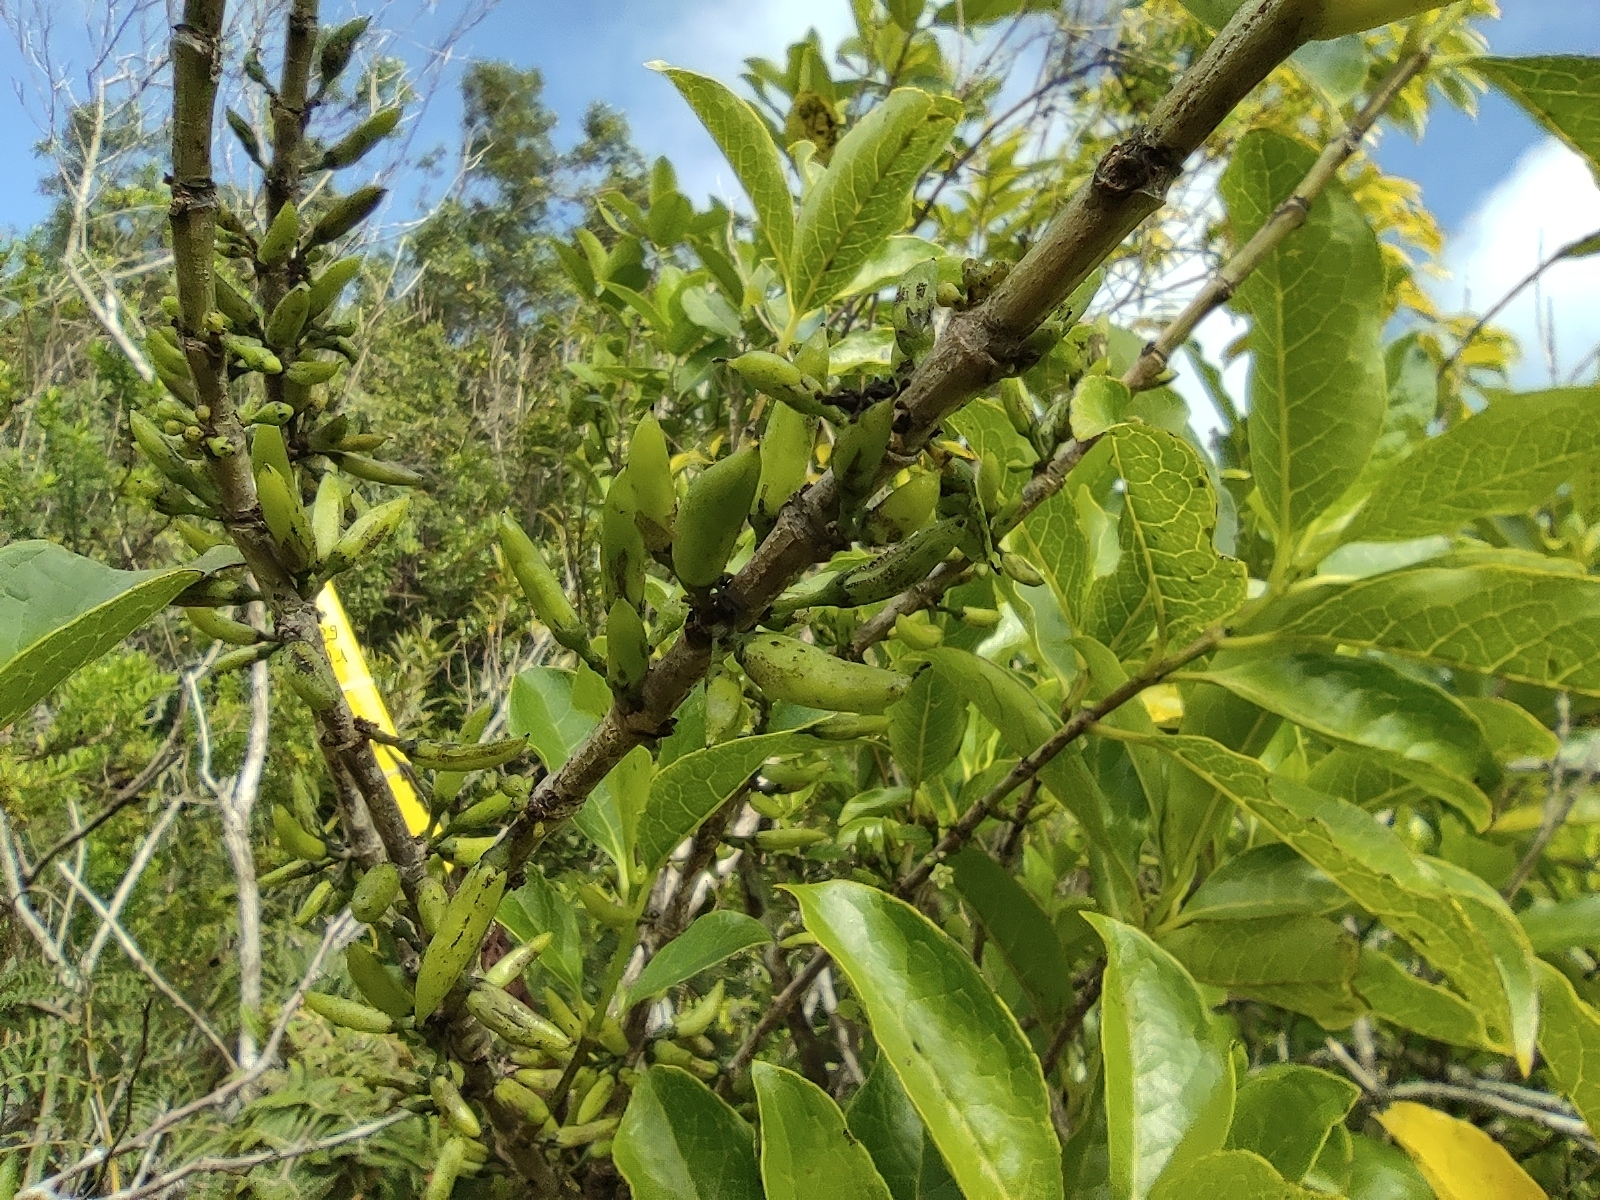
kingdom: Plantae
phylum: Tracheophyta
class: Magnoliopsida
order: Gentianales
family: Loganiaceae
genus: Geniostoma
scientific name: Geniostoma borbonicum
